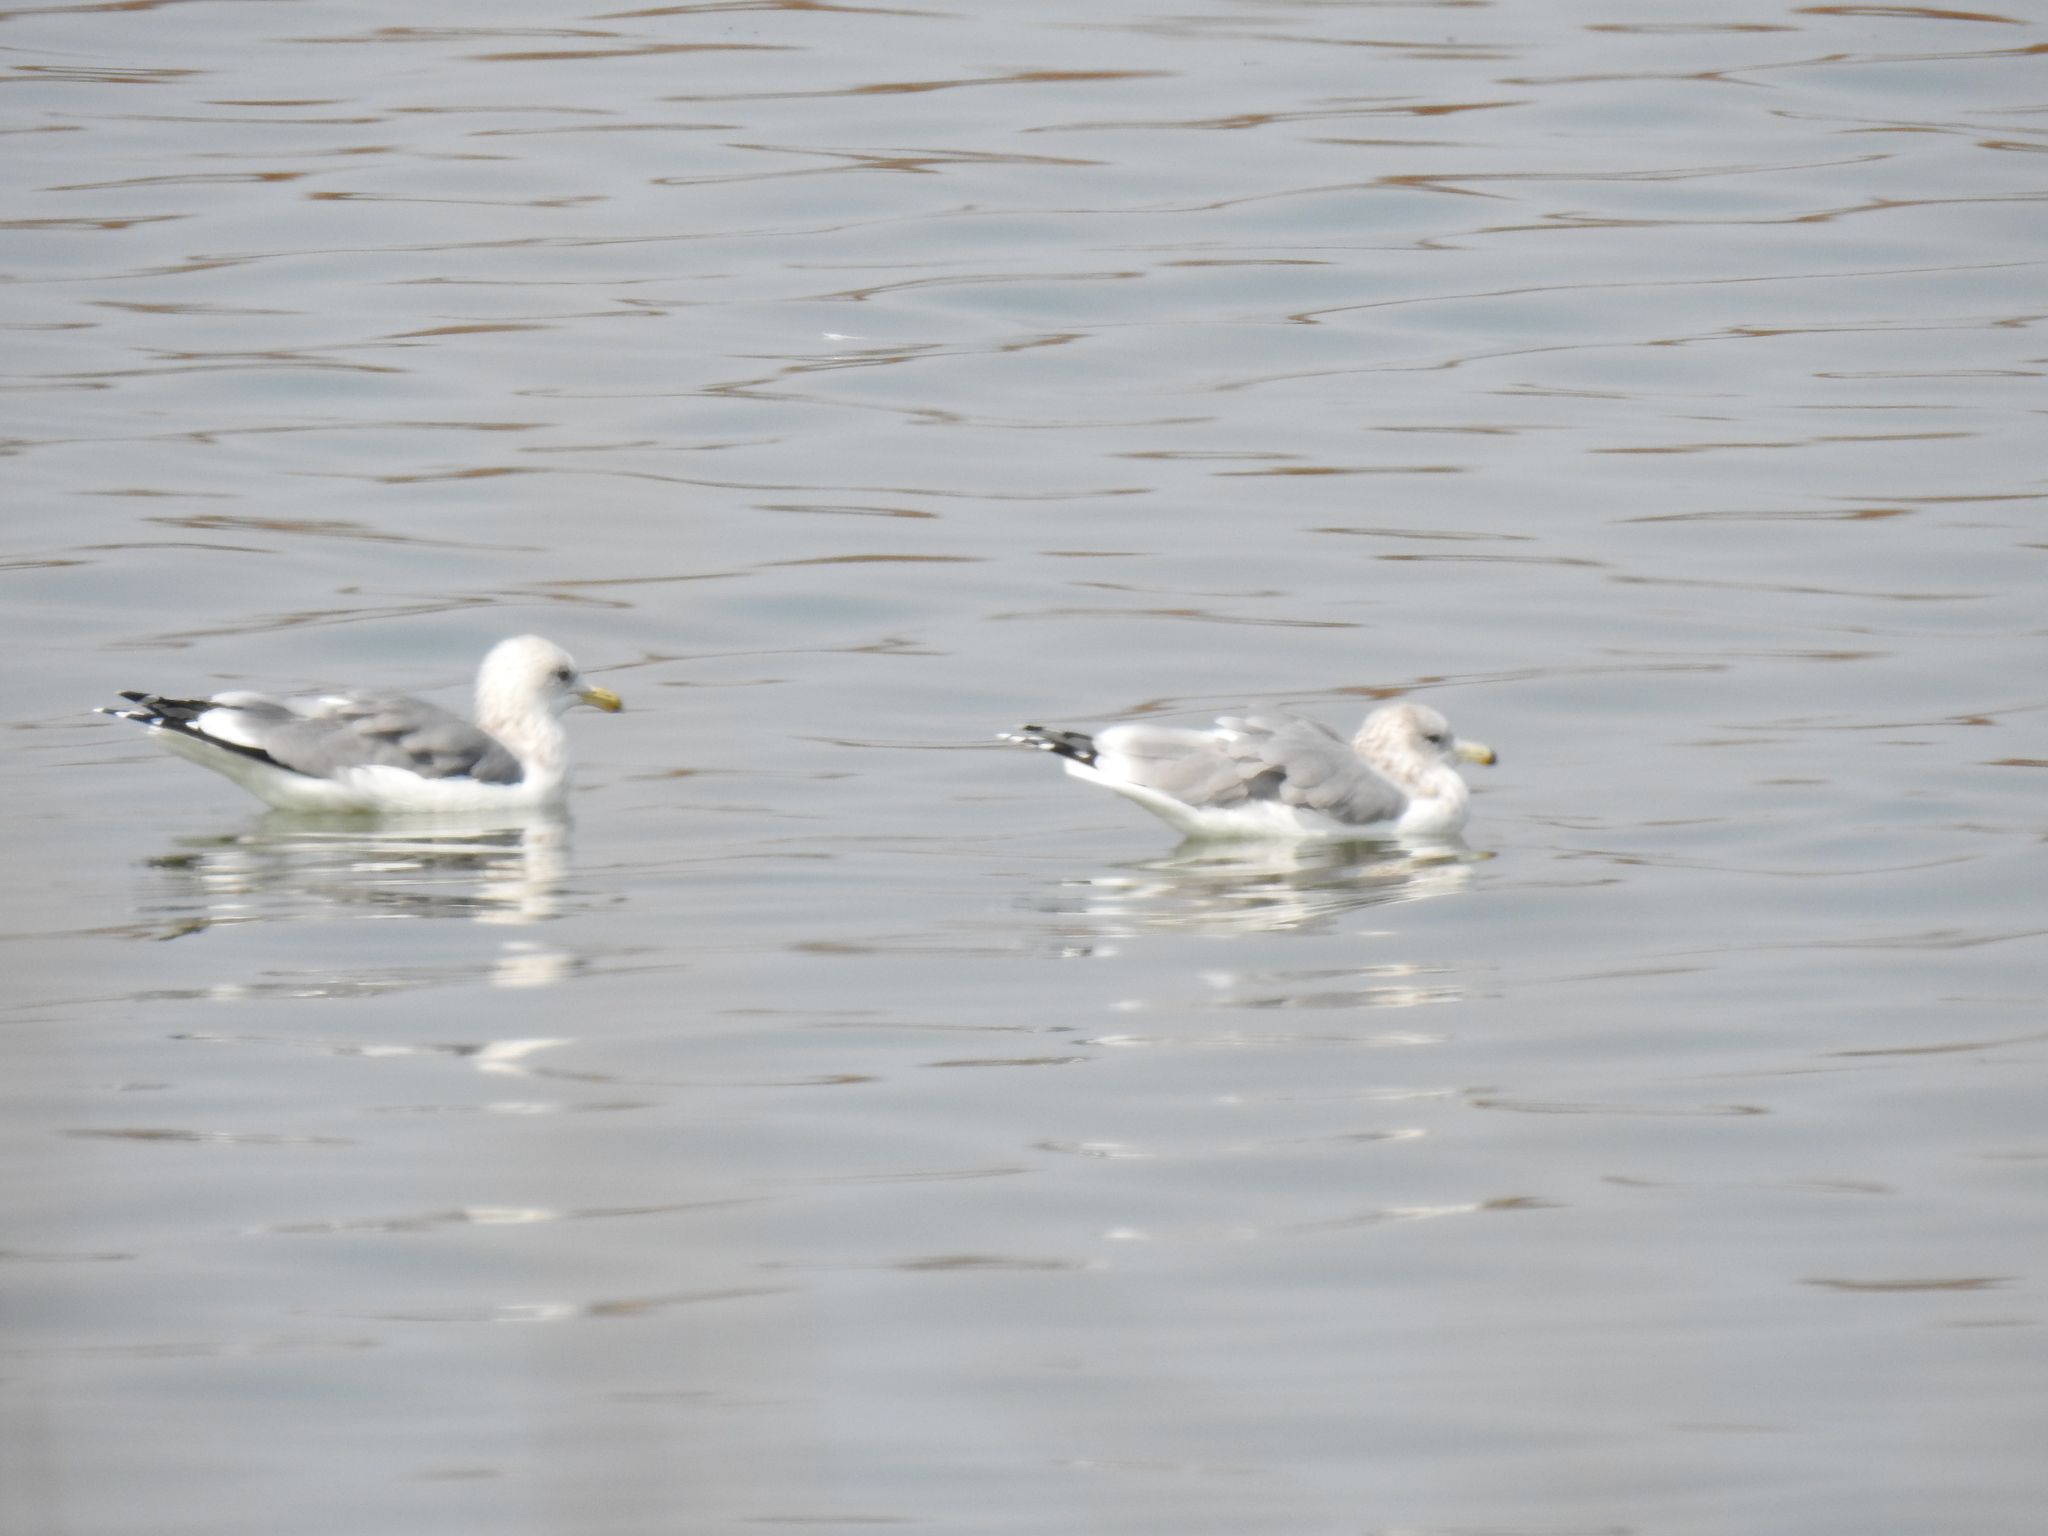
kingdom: Animalia
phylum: Chordata
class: Aves
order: Charadriiformes
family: Laridae
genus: Larus
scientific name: Larus californicus
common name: California gull
